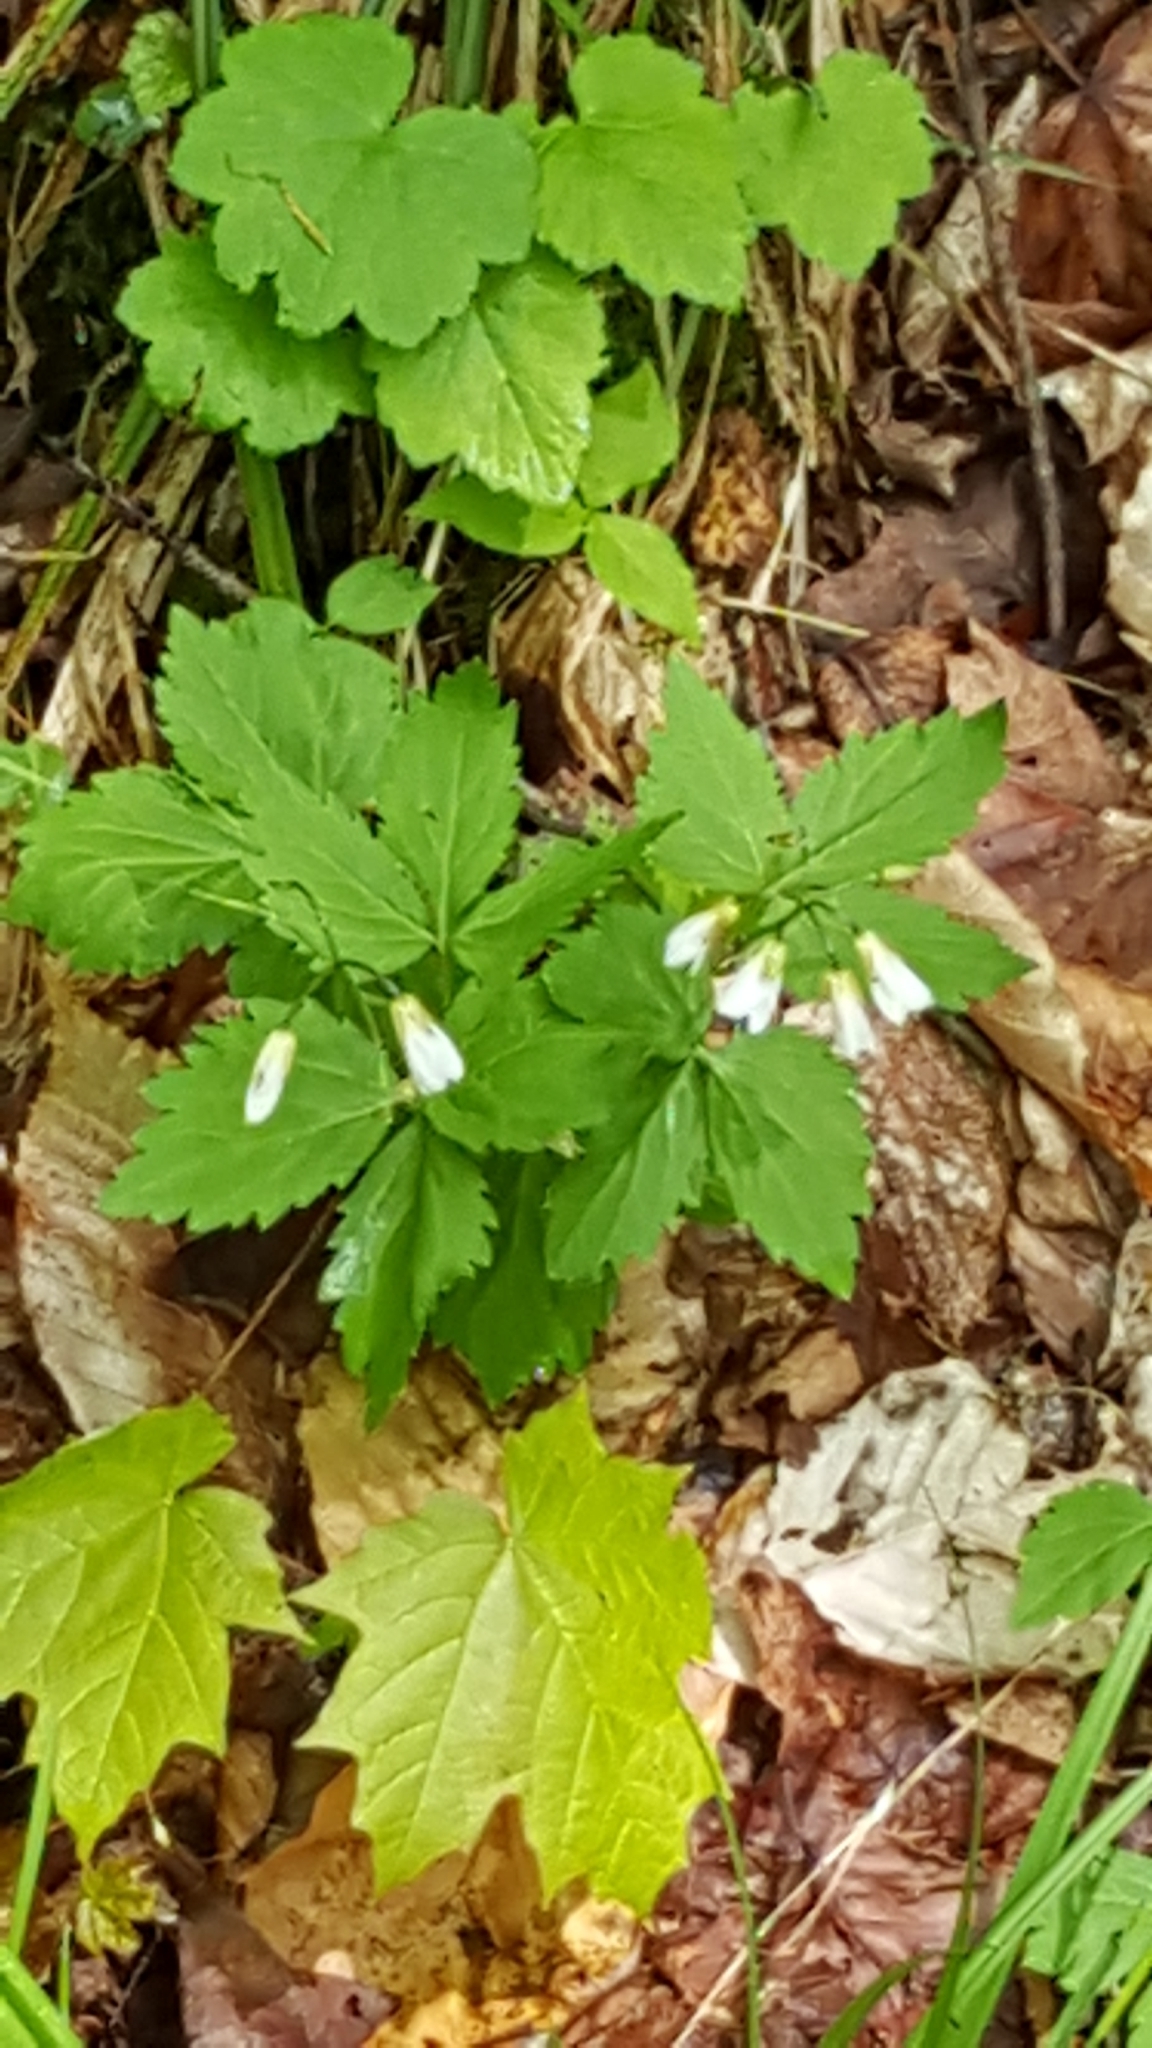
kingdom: Plantae
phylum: Tracheophyta
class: Magnoliopsida
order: Brassicales
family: Brassicaceae
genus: Cardamine
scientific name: Cardamine diphylla
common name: Broad-leaved toothwort
